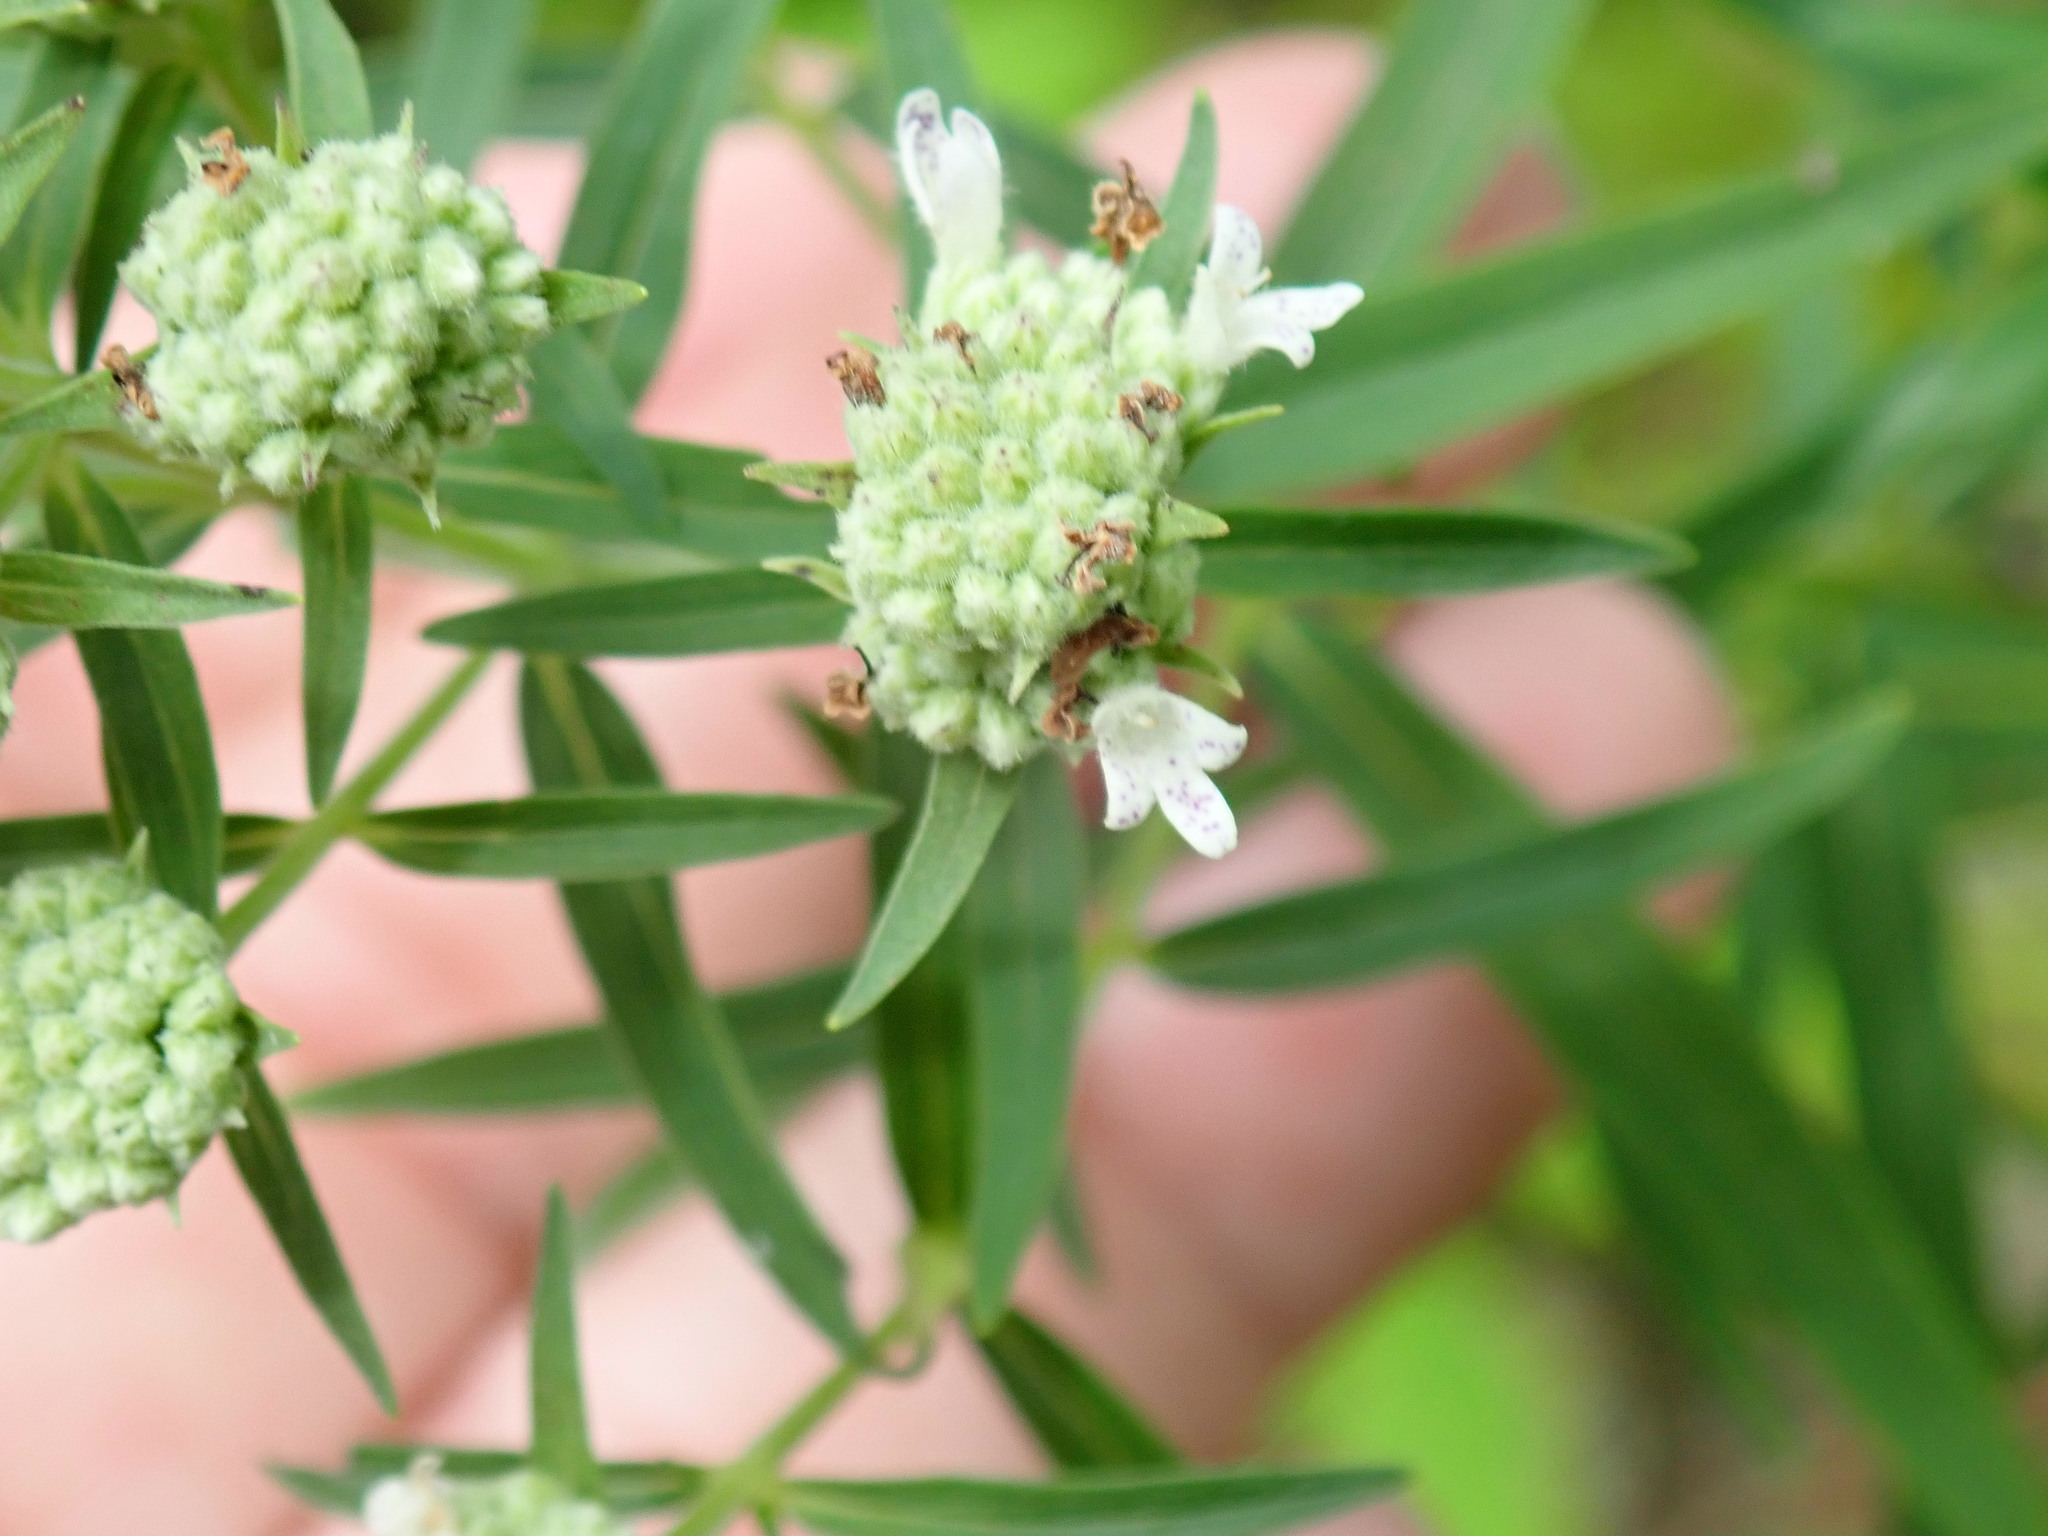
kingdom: Plantae
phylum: Tracheophyta
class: Magnoliopsida
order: Lamiales
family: Lamiaceae
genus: Pycnanthemum
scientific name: Pycnanthemum
